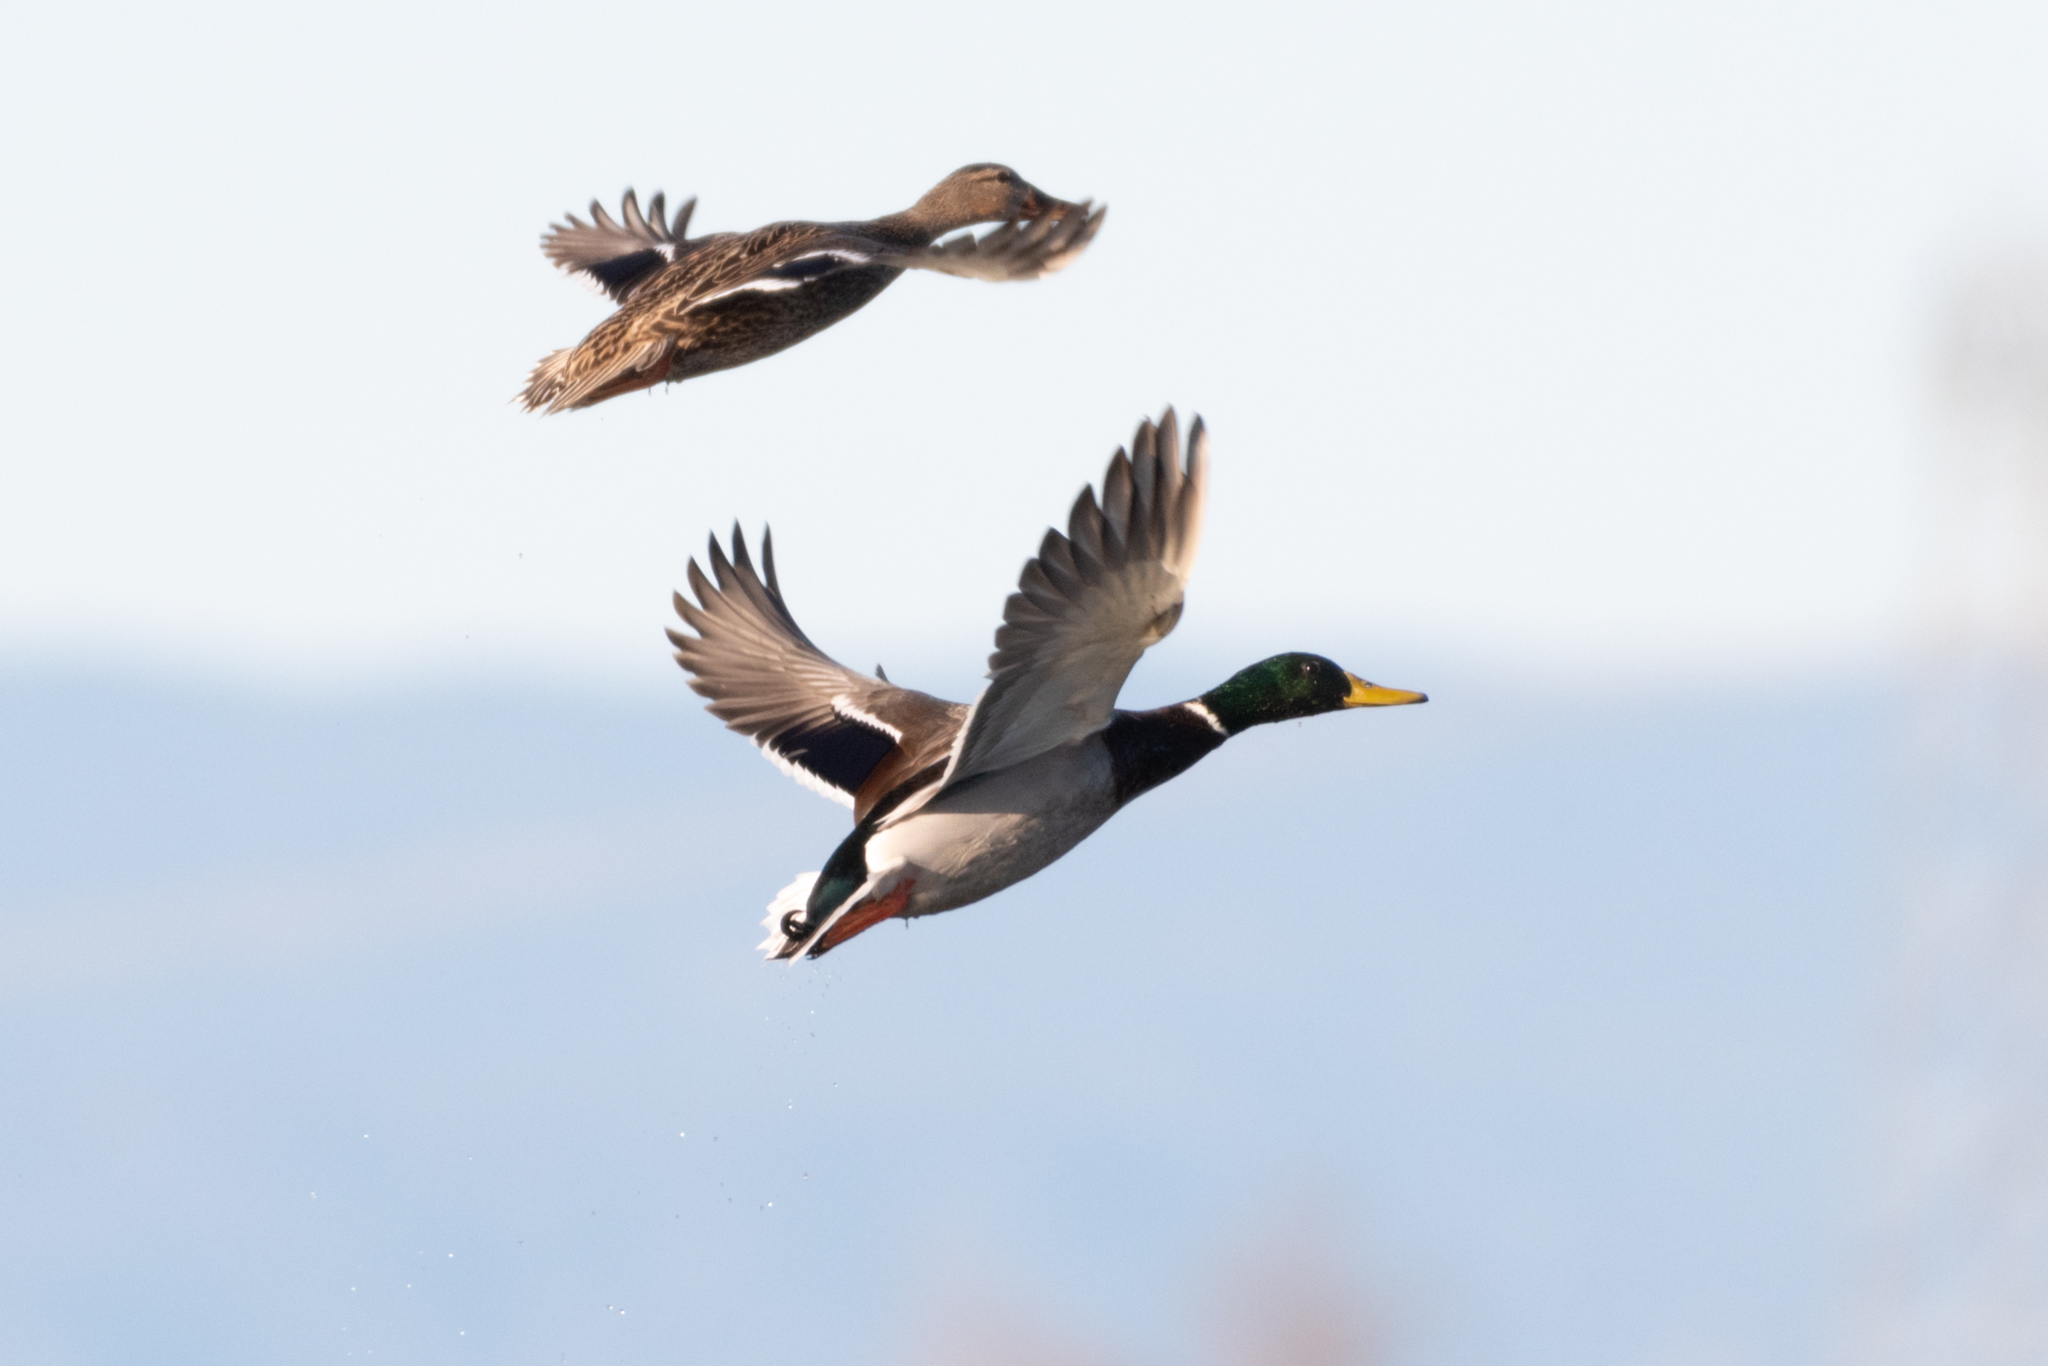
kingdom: Animalia
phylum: Chordata
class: Aves
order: Anseriformes
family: Anatidae
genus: Anas
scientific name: Anas platyrhynchos
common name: Mallard
